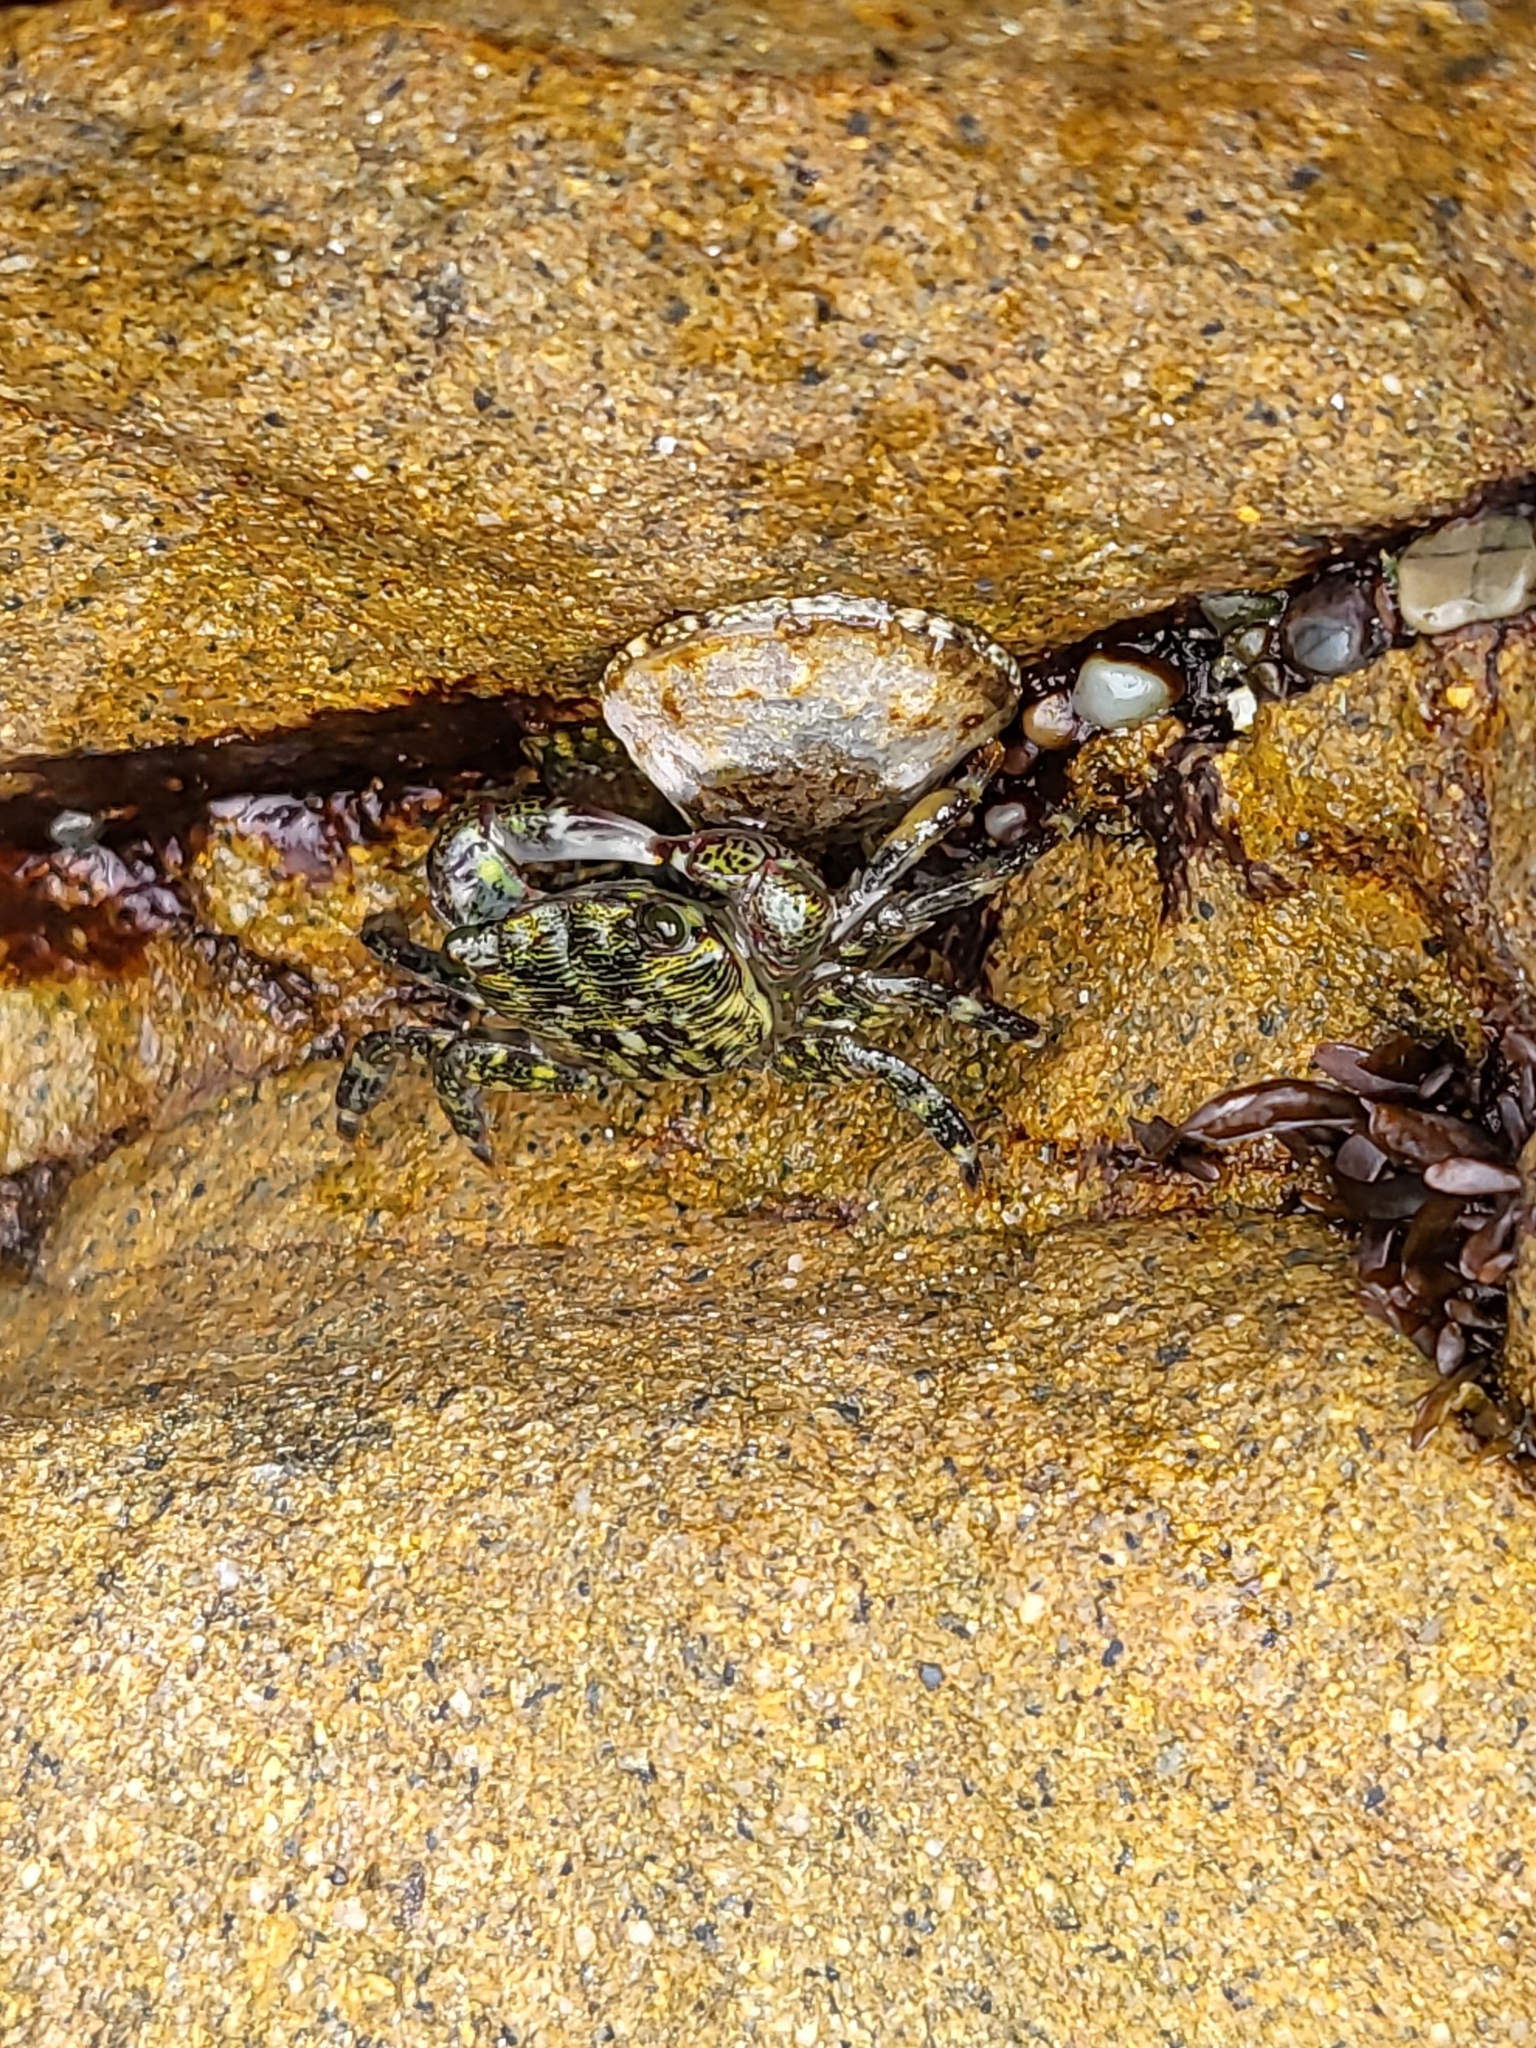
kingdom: Animalia
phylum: Arthropoda
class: Malacostraca
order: Decapoda
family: Grapsidae
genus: Pachygrapsus
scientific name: Pachygrapsus crassipes
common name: Striped shore crab
